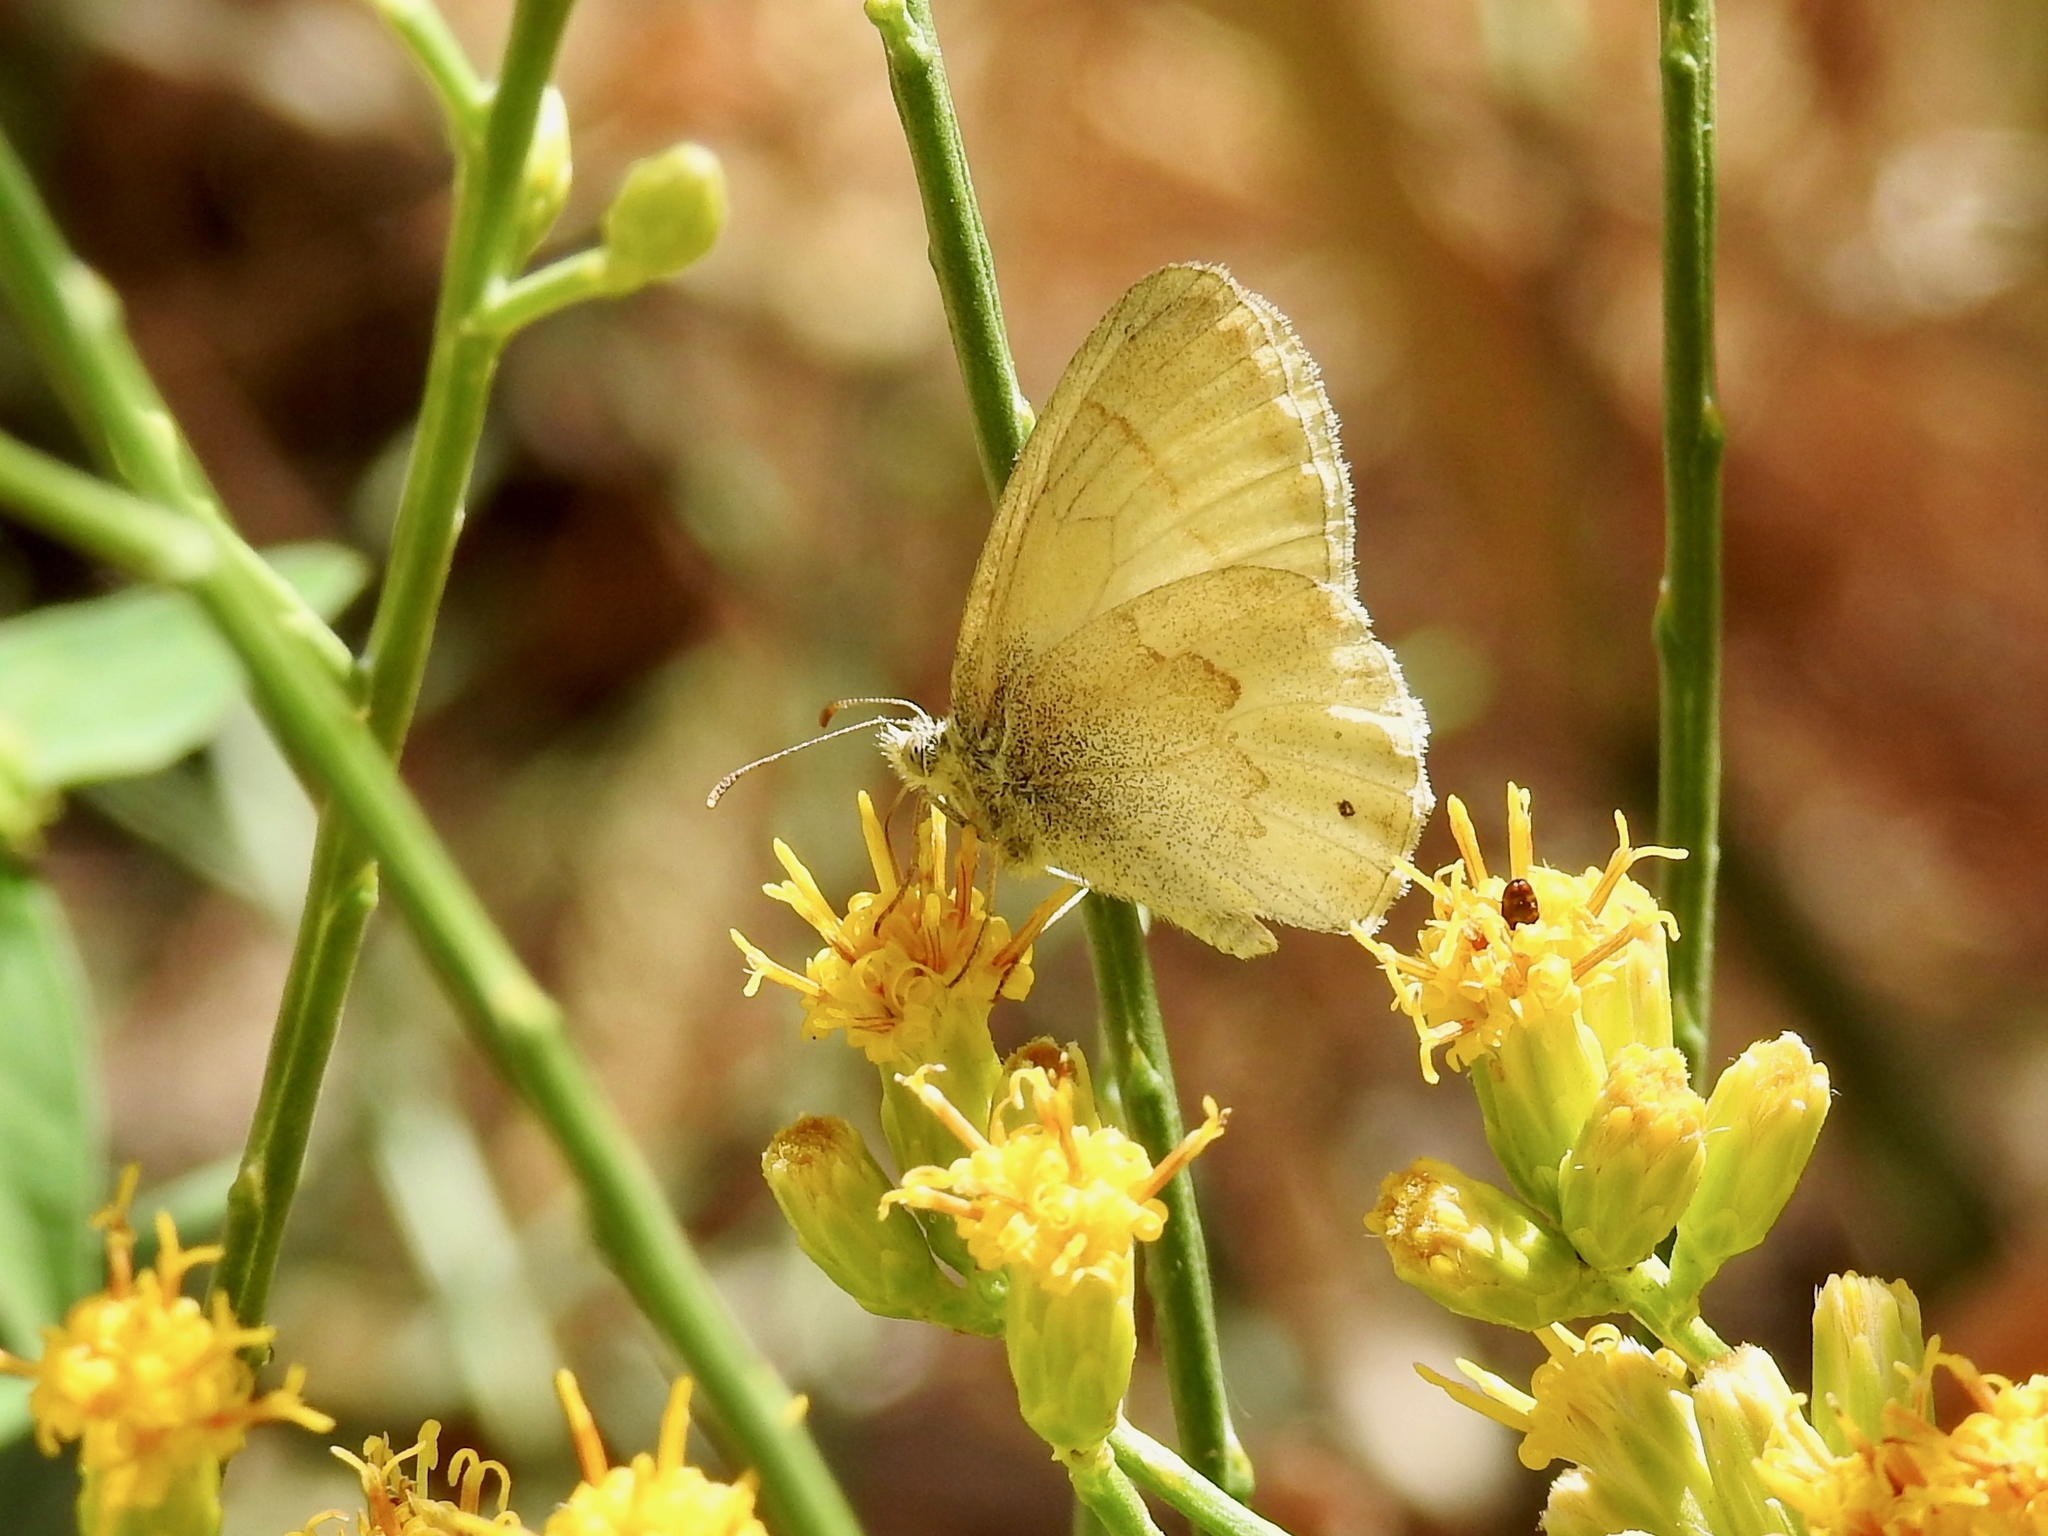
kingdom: Animalia
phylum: Arthropoda
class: Insecta
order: Lepidoptera
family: Nymphalidae
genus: Coenonympha
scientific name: Coenonympha california
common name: Common ringlet
